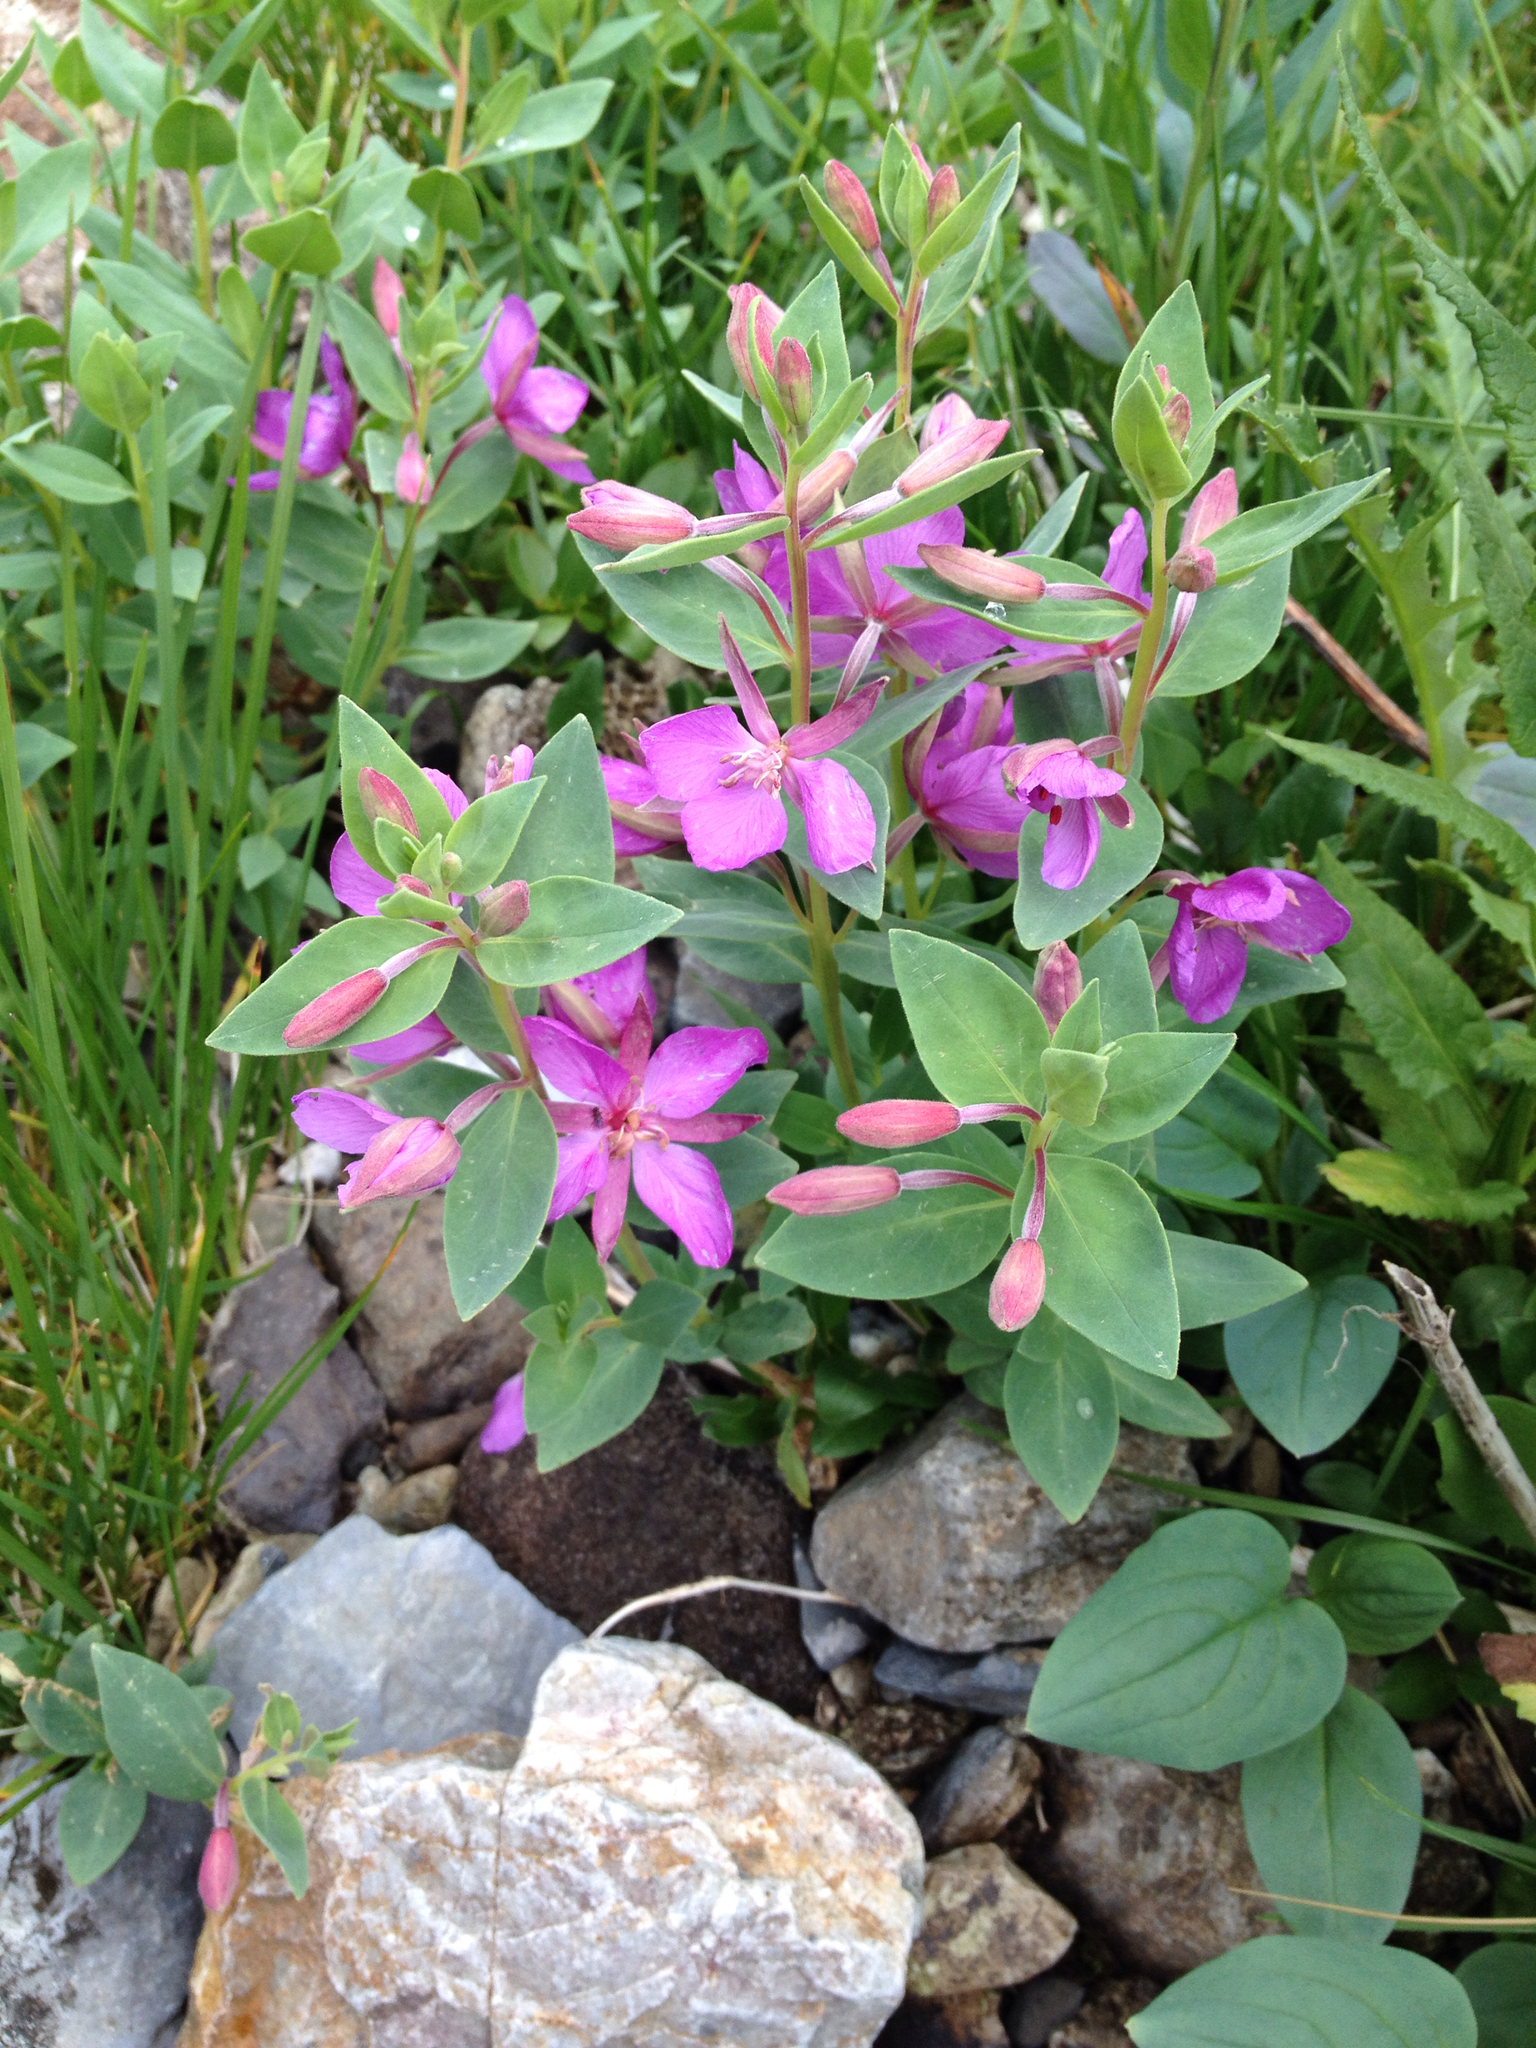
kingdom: Plantae
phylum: Tracheophyta
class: Magnoliopsida
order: Myrtales
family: Onagraceae
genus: Chamaenerion
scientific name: Chamaenerion latifolium
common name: Dwarf fireweed
